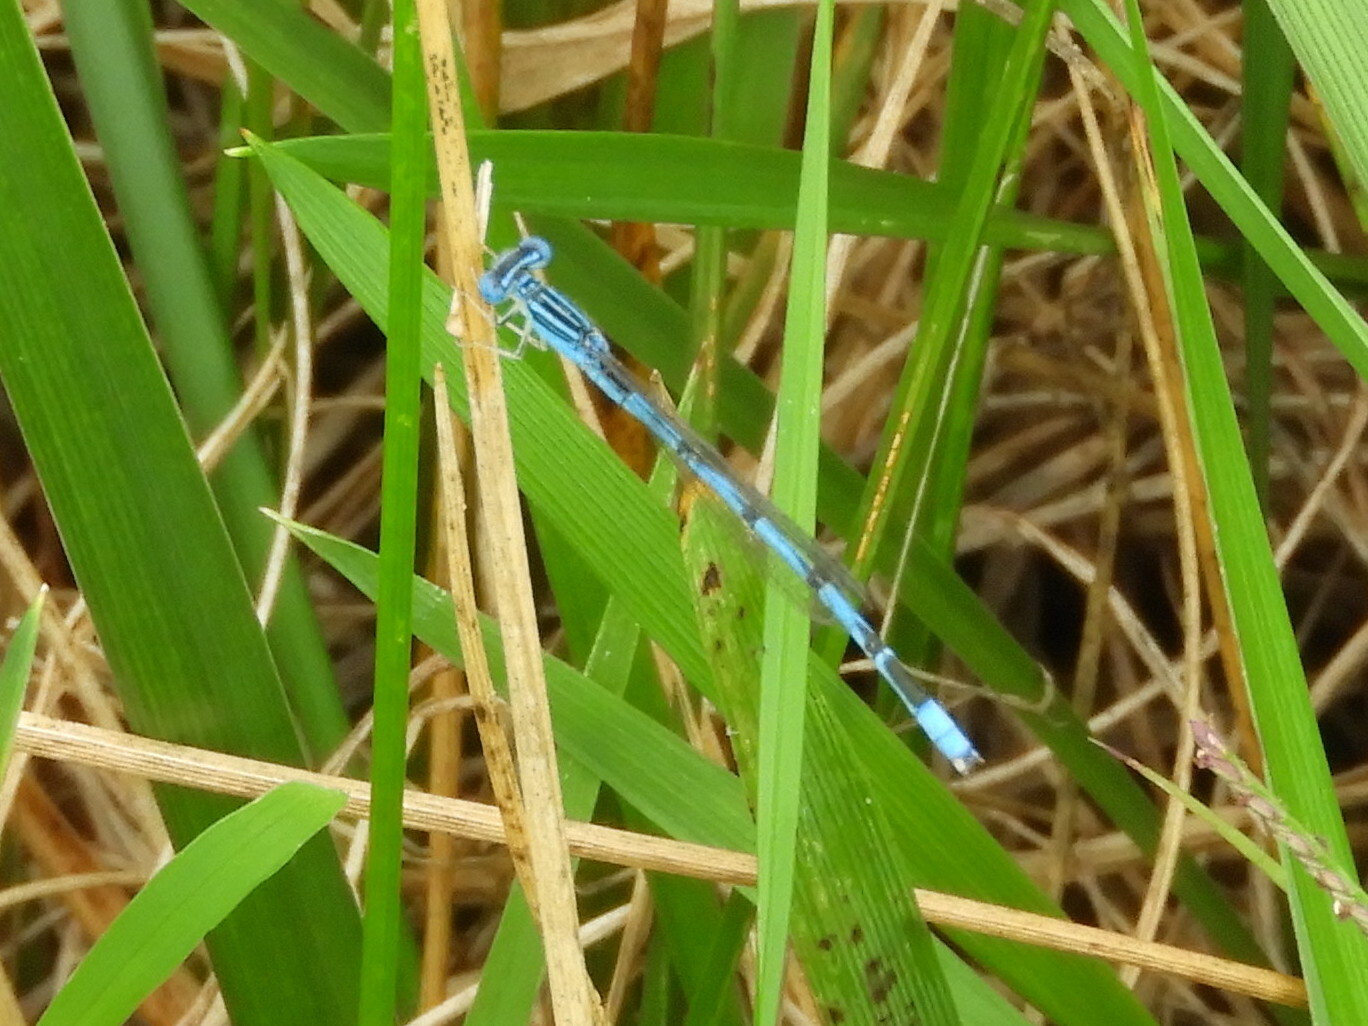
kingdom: Animalia
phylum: Arthropoda
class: Insecta
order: Odonata
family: Coenagrionidae
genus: Enallagma
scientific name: Enallagma basidens
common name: Double-striped bluet
